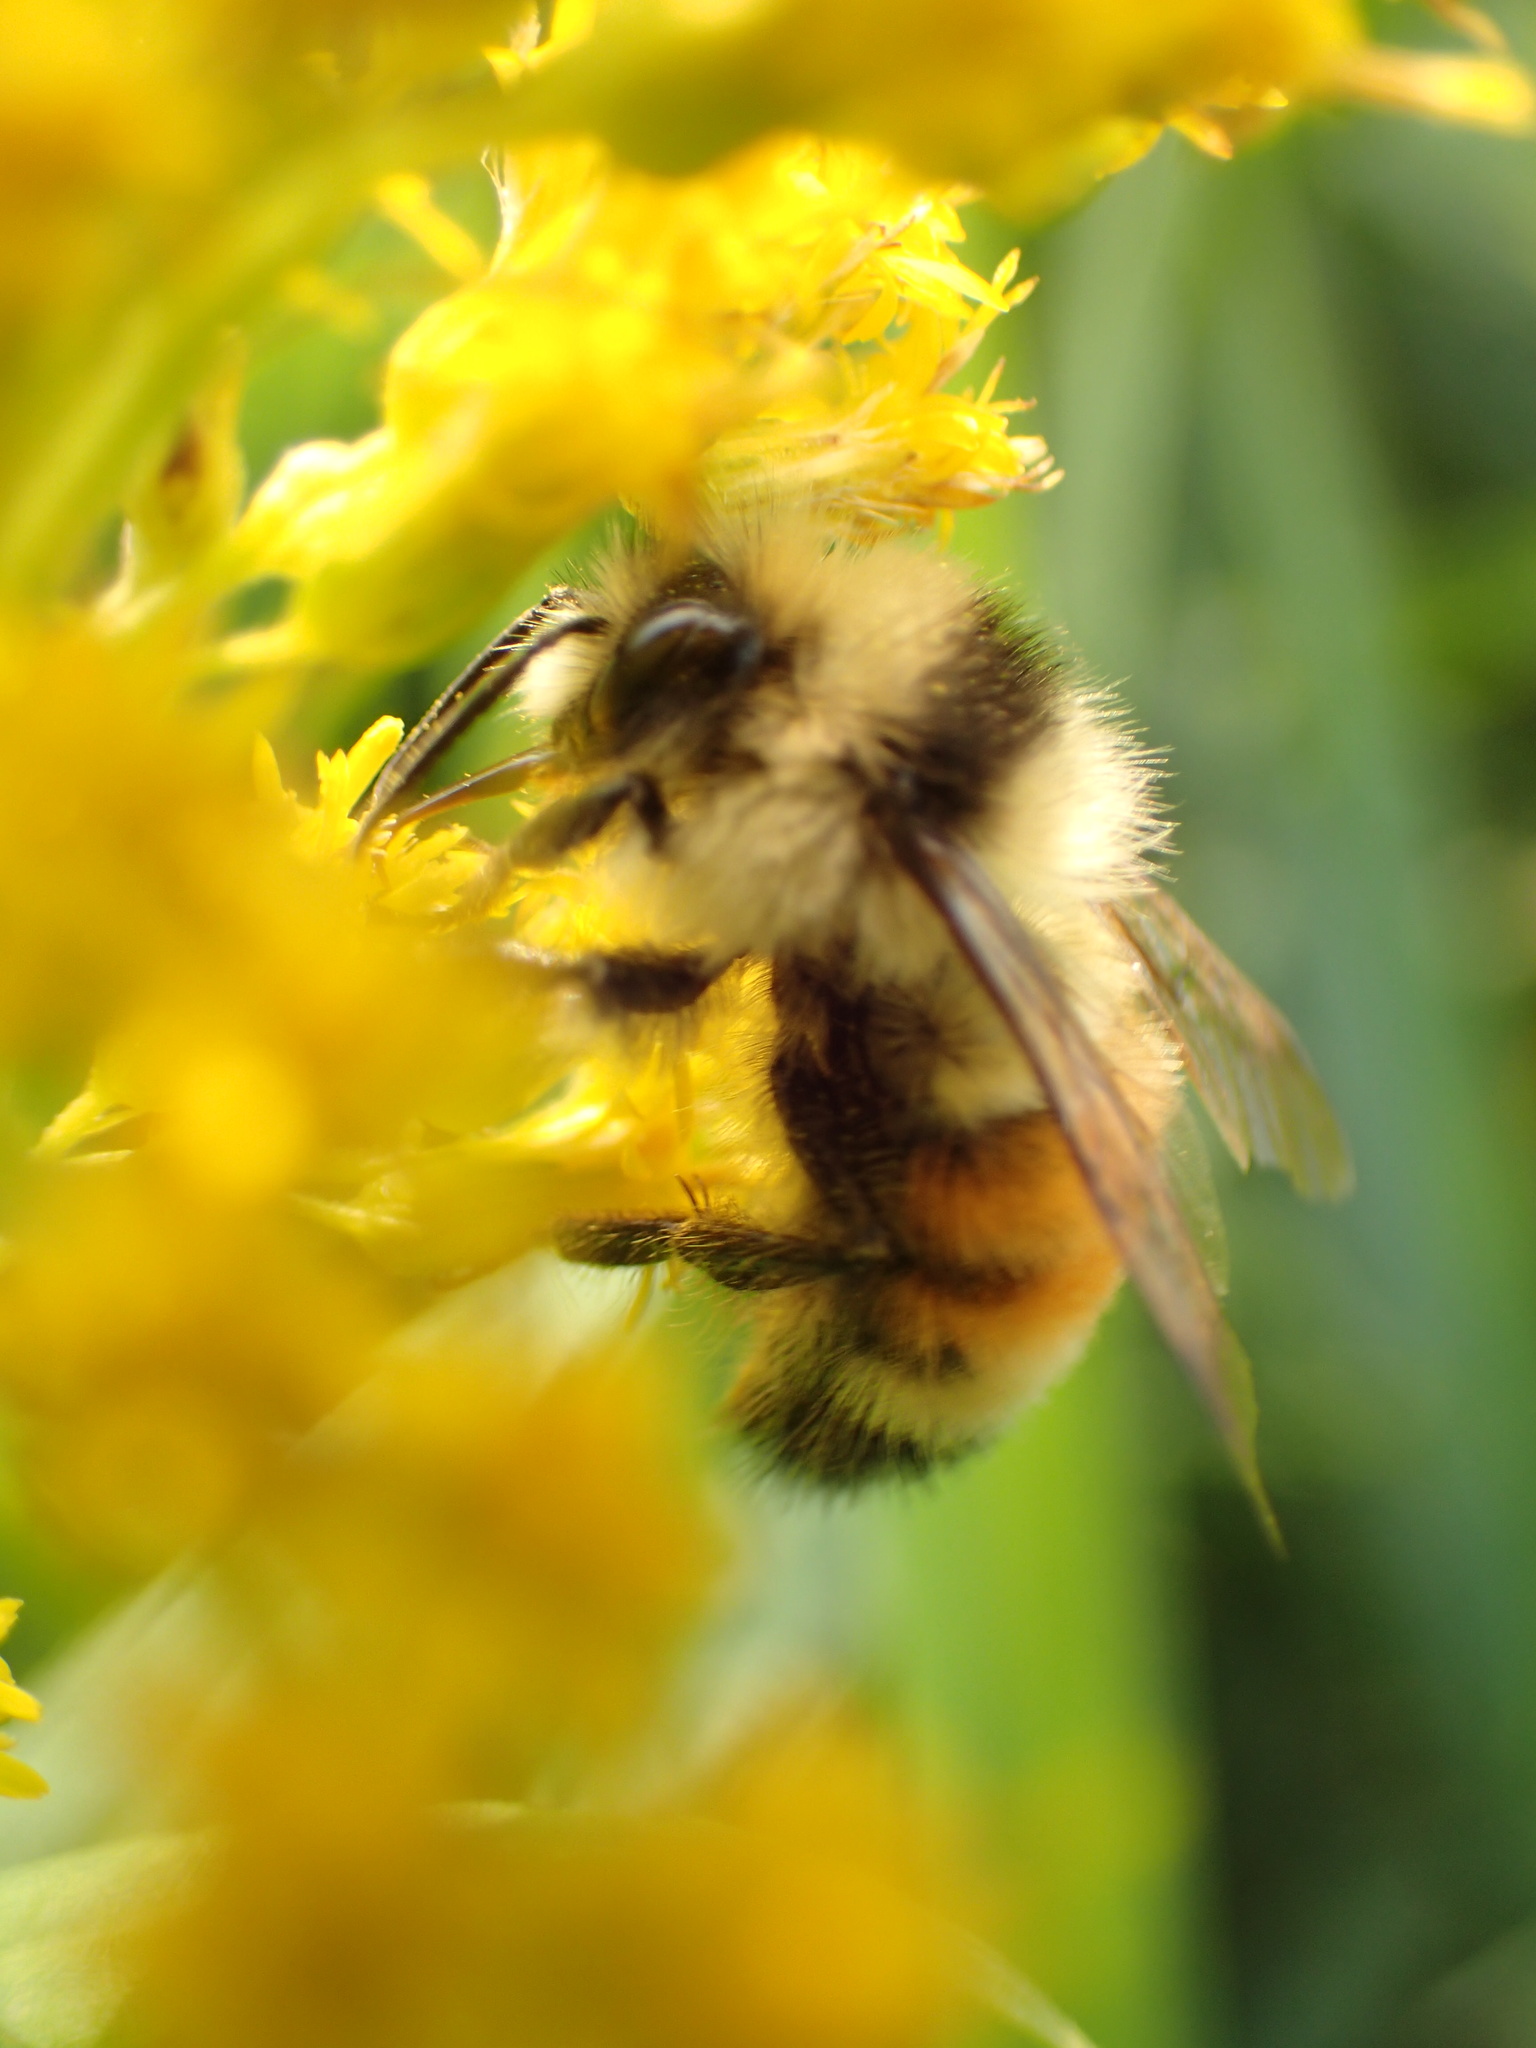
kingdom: Animalia
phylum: Arthropoda
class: Insecta
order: Hymenoptera
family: Apidae
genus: Bombus
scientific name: Bombus ternarius
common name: Tri-colored bumble bee
